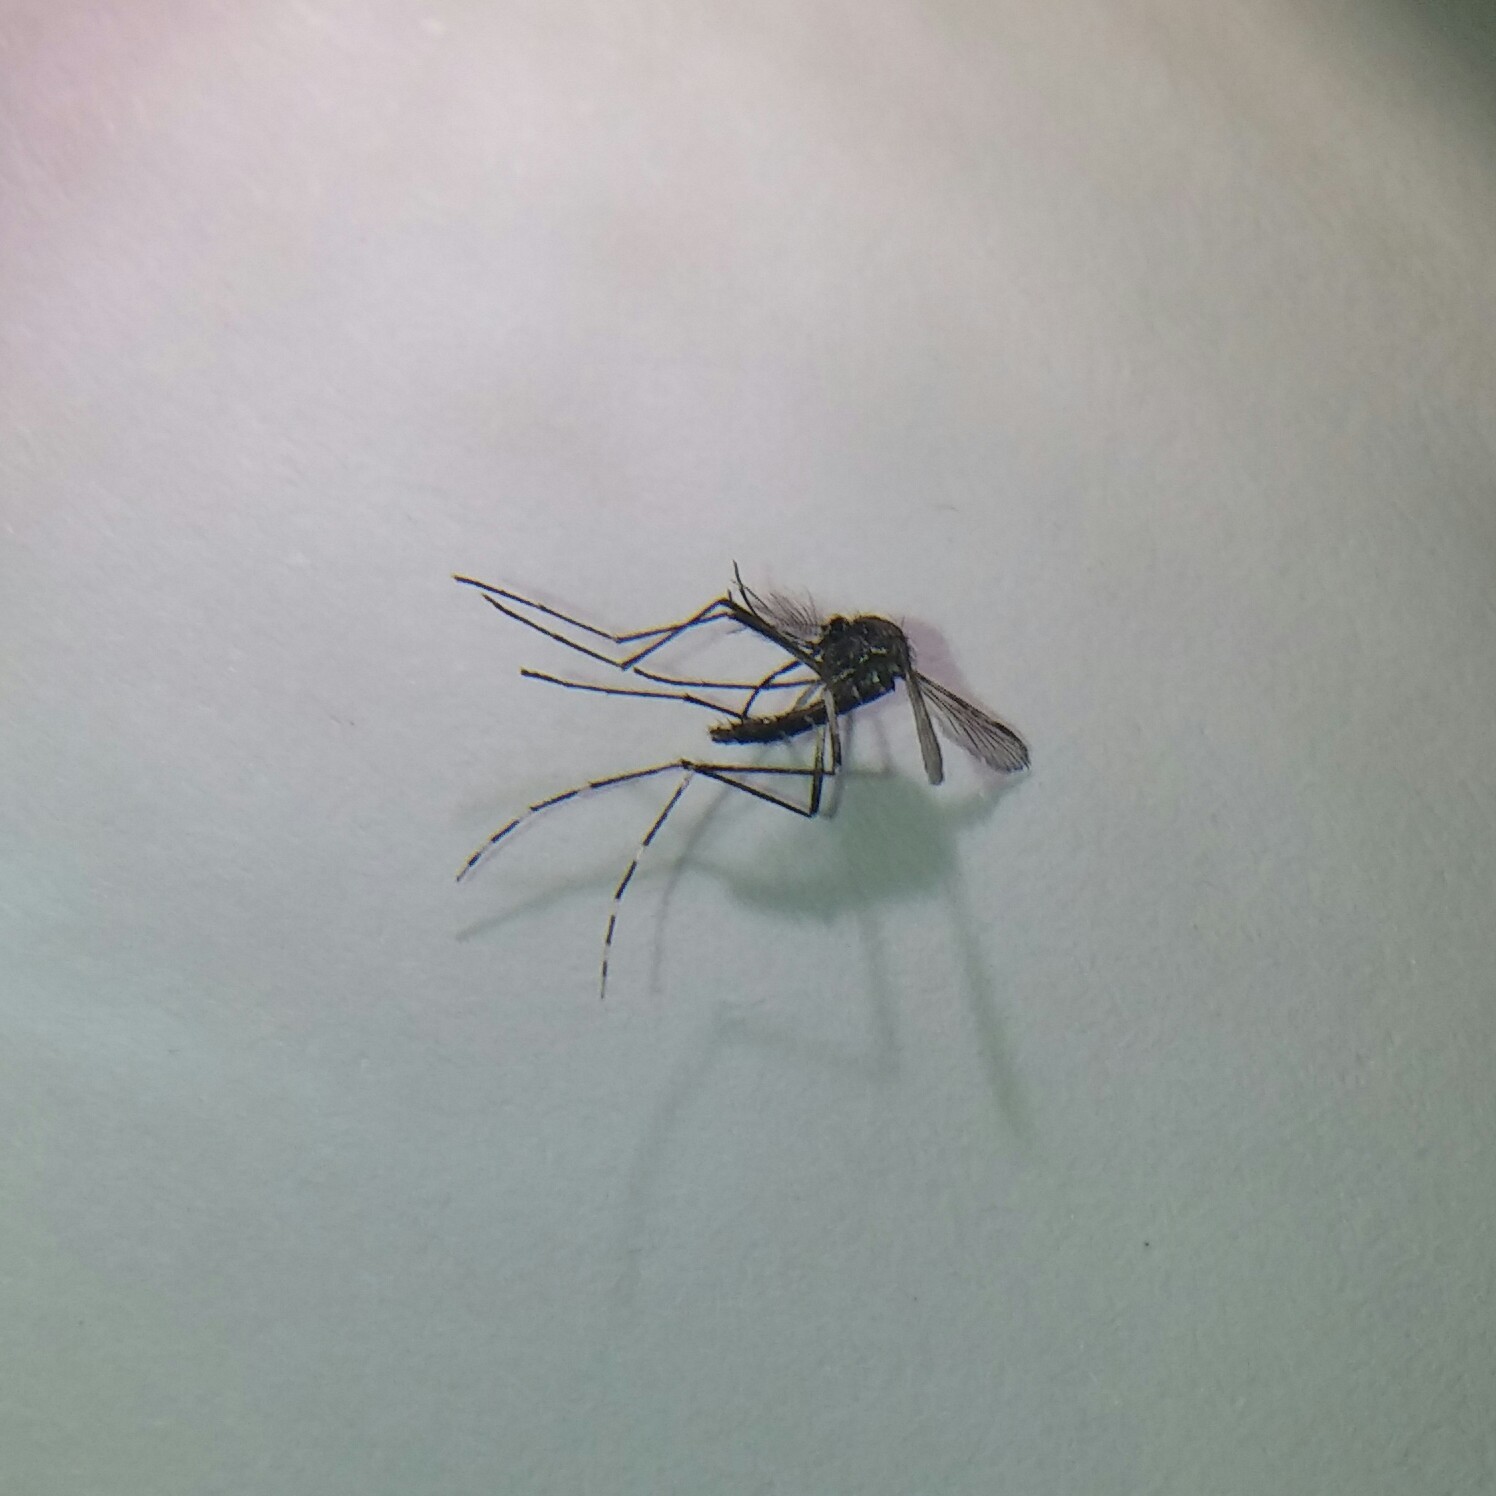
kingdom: Animalia
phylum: Arthropoda
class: Insecta
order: Diptera
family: Culicidae
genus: Aedes
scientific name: Aedes albopictus
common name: Tiger mosquito
